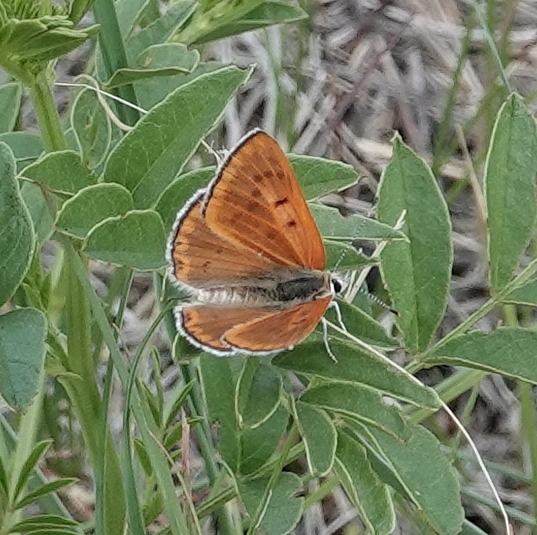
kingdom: Animalia
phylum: Arthropoda
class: Insecta
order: Lepidoptera
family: Lycaenidae
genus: Tharsalea
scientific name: Tharsalea rubidus
